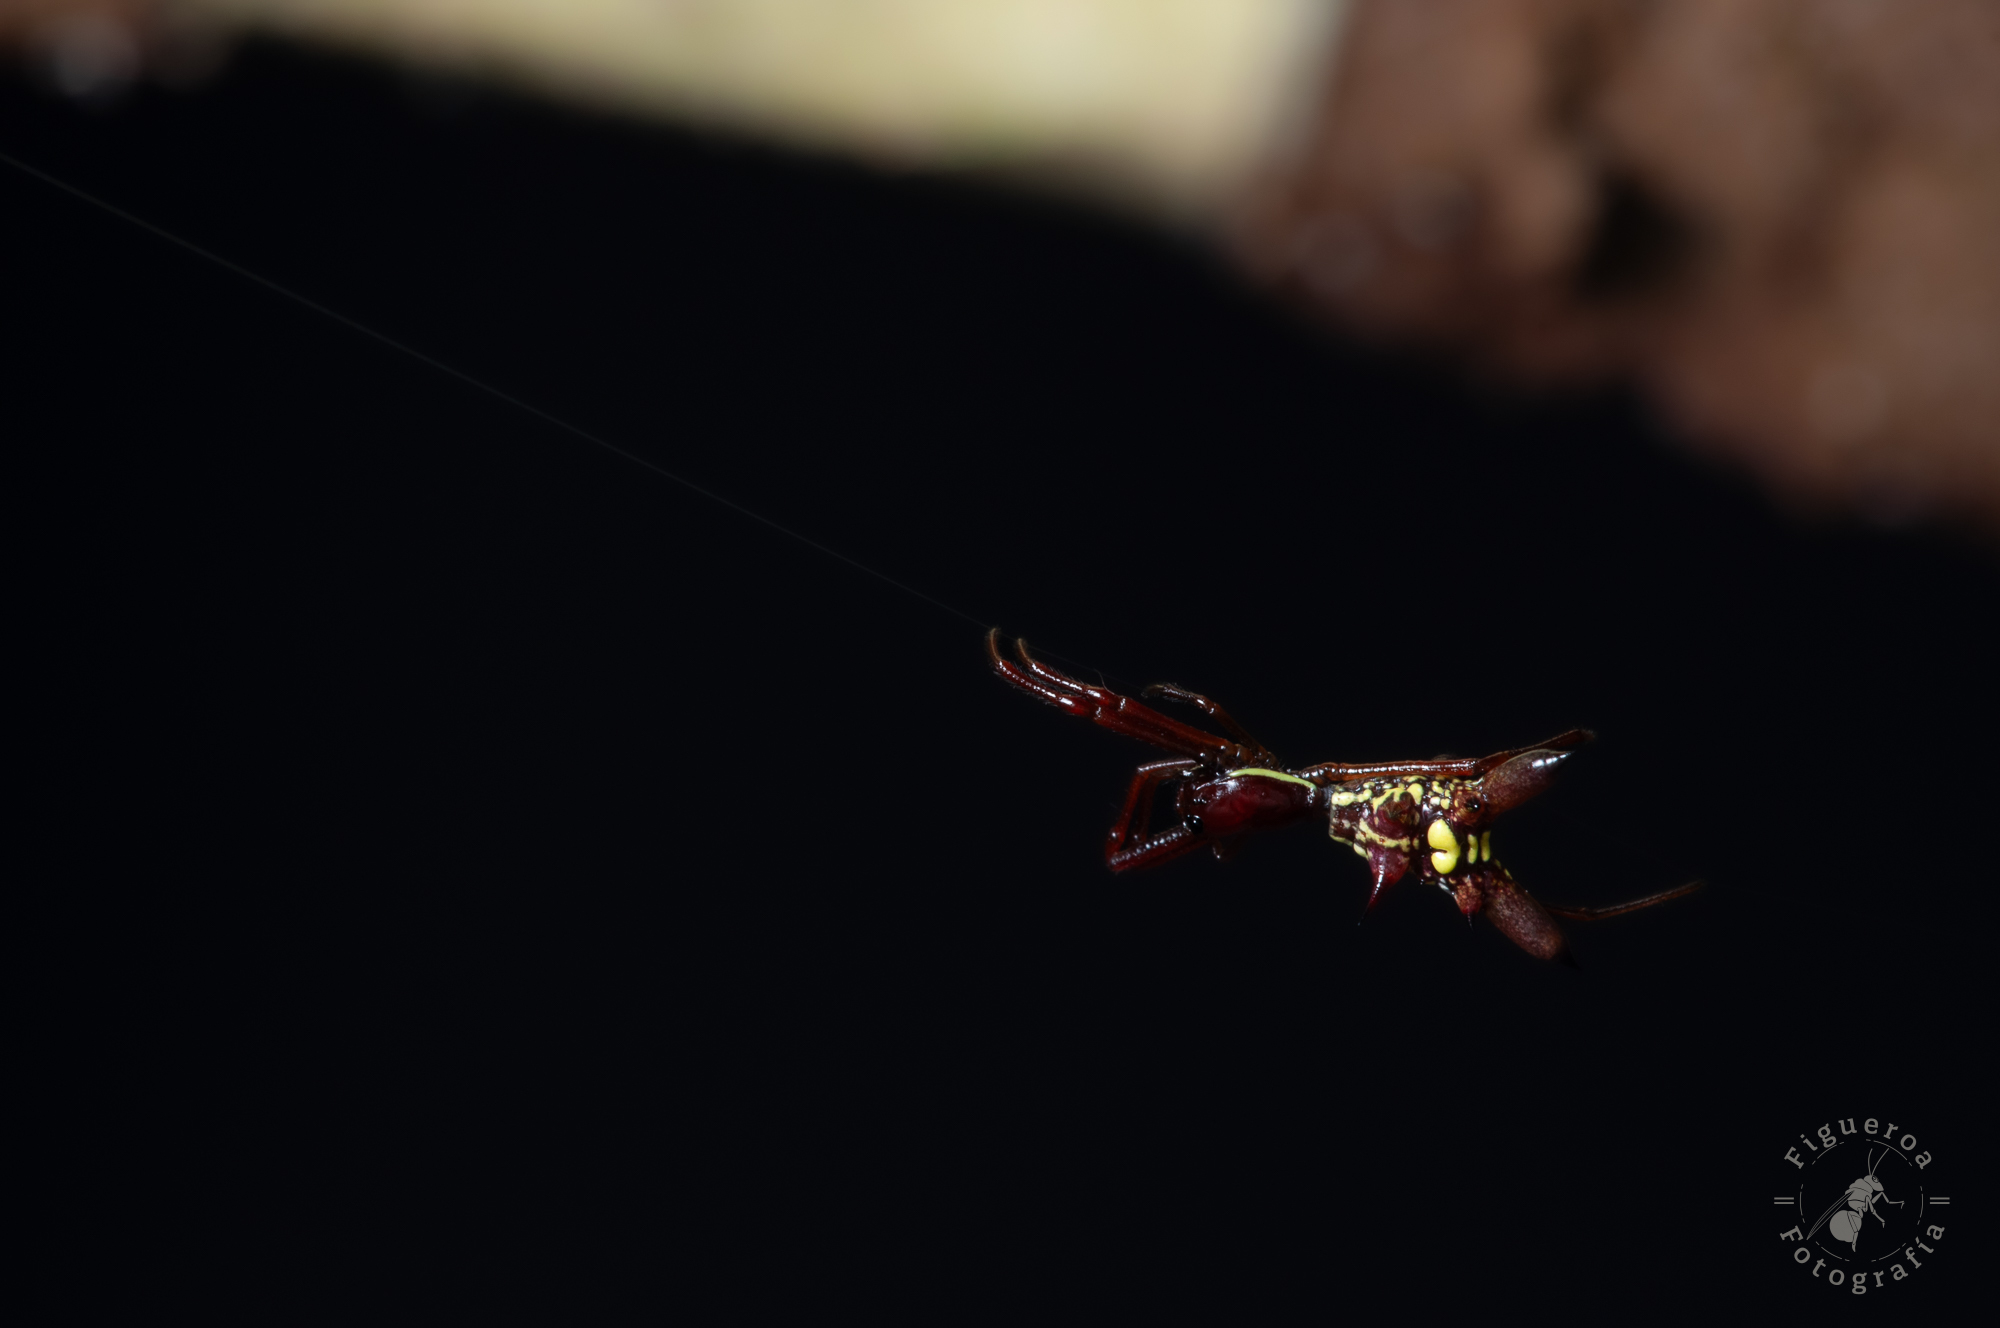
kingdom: Animalia
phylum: Arthropoda
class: Arachnida
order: Araneae
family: Araneidae
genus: Micrathena
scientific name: Micrathena sexspinosa
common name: Orb weavers
